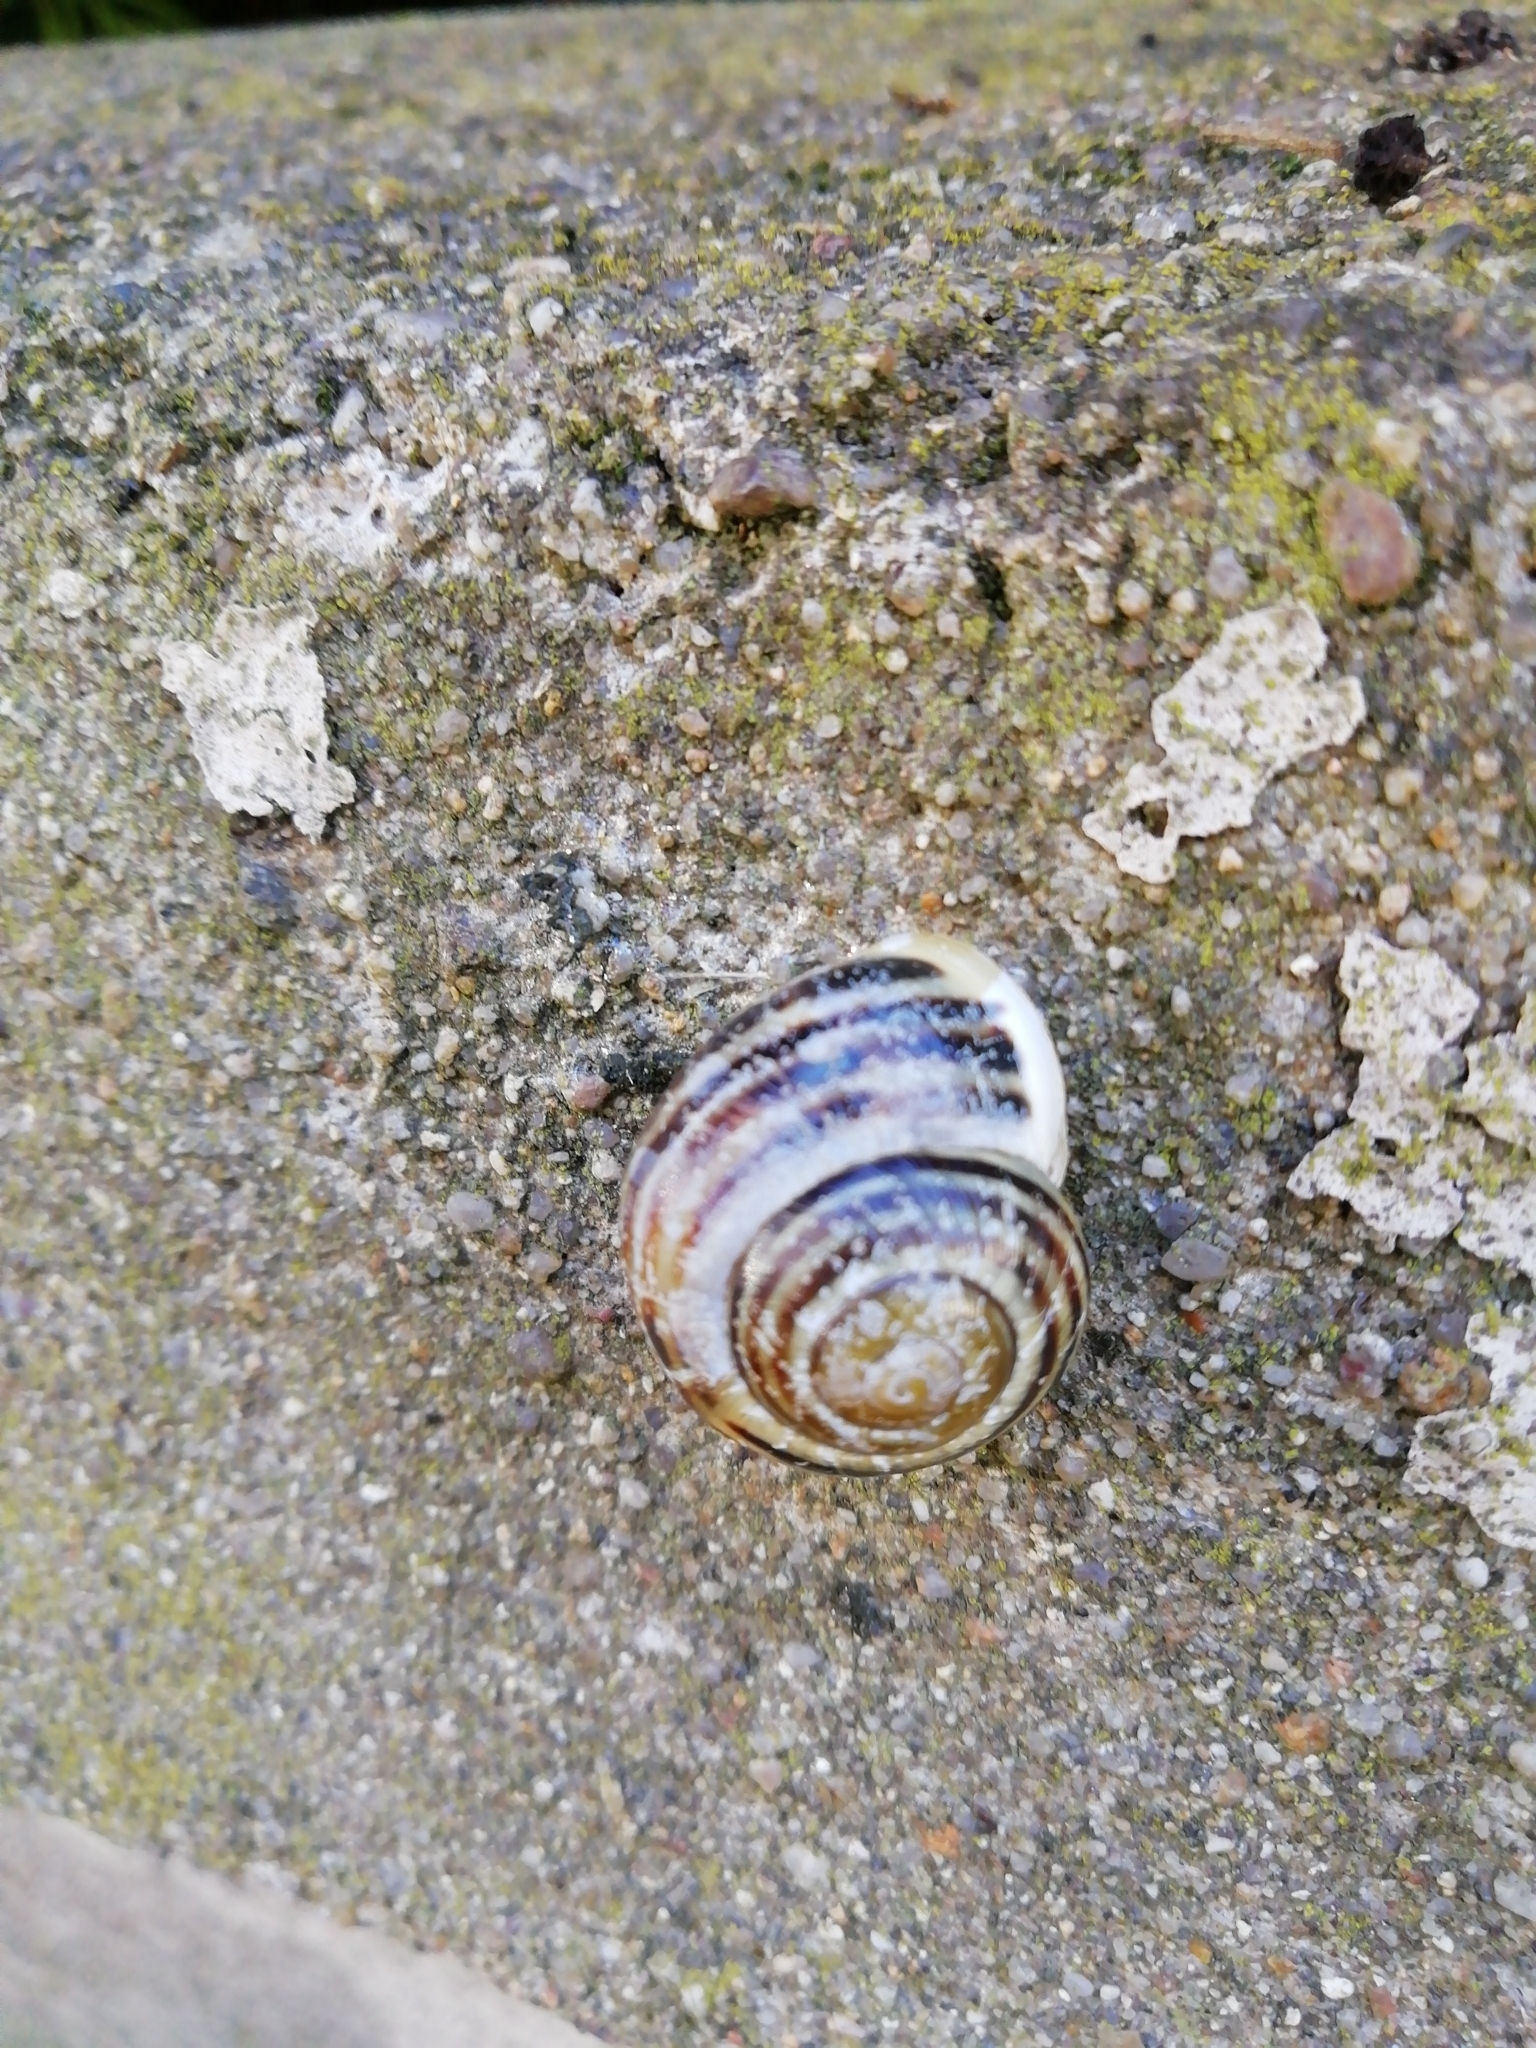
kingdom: Animalia
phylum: Mollusca
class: Gastropoda
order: Stylommatophora
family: Helicidae
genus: Cepaea
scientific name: Cepaea hortensis
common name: White-lip gardensnail
